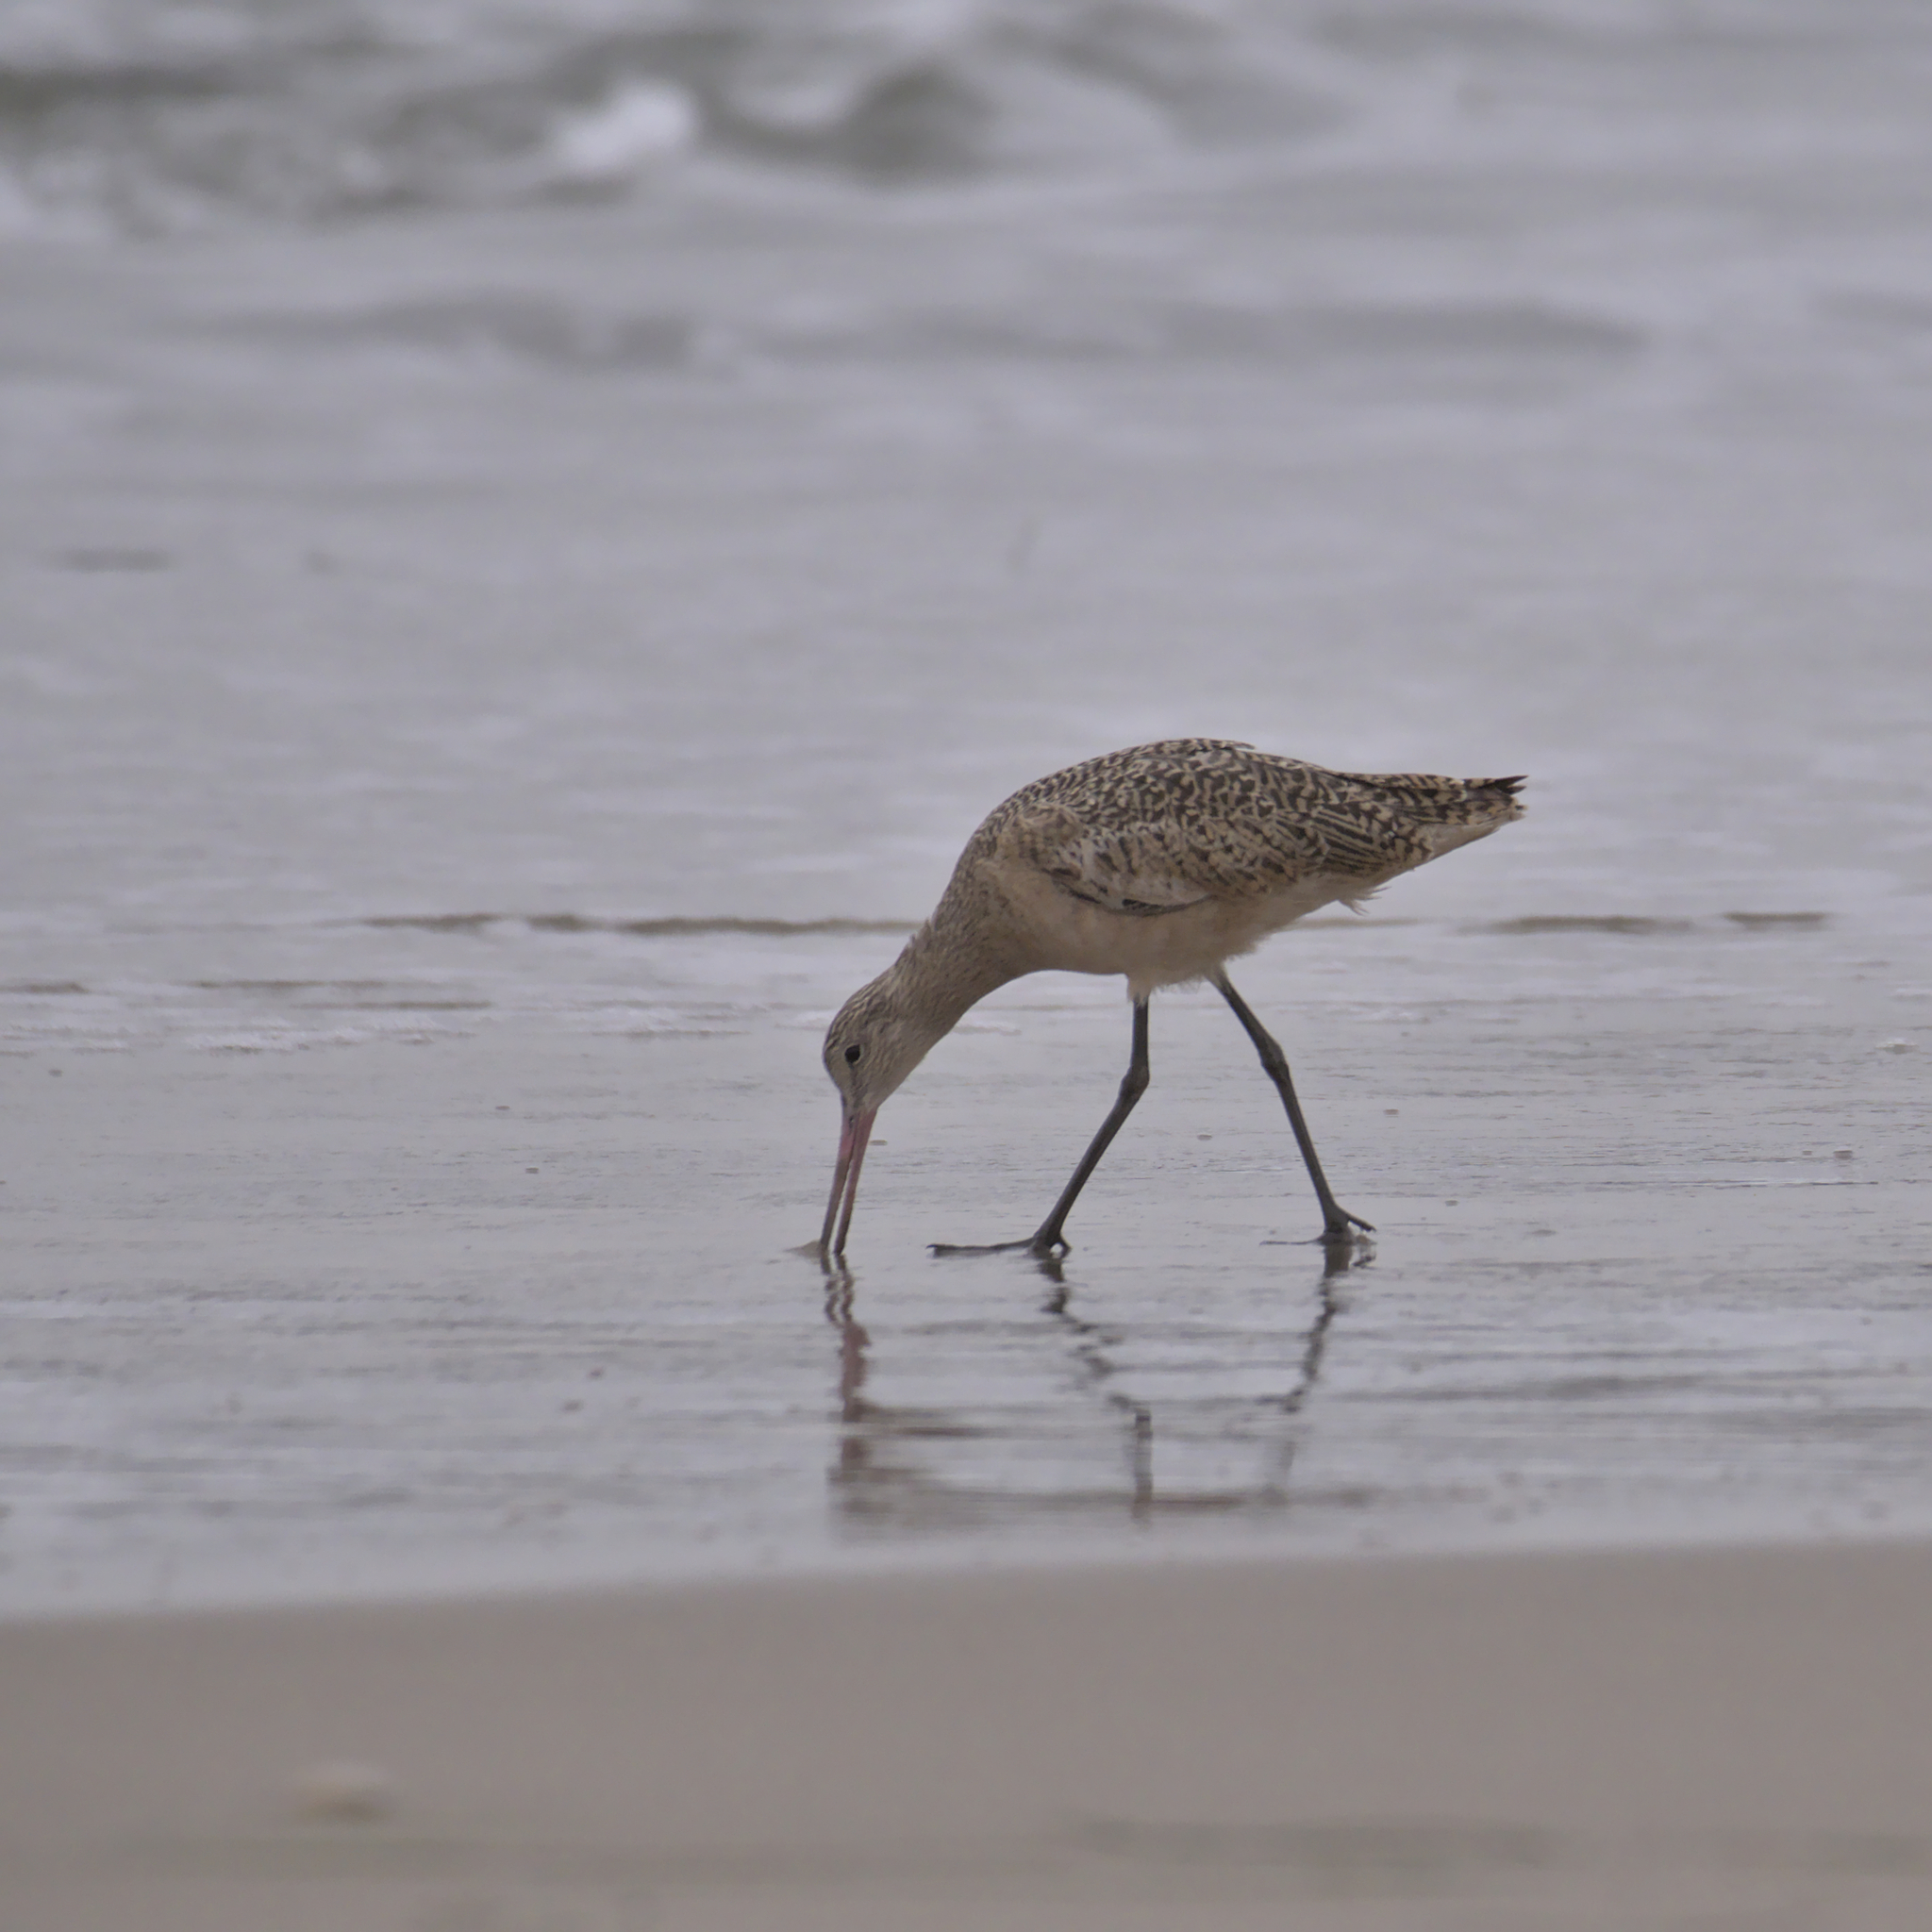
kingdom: Animalia
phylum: Chordata
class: Aves
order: Charadriiformes
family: Scolopacidae
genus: Limosa
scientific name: Limosa fedoa
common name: Marbled godwit
